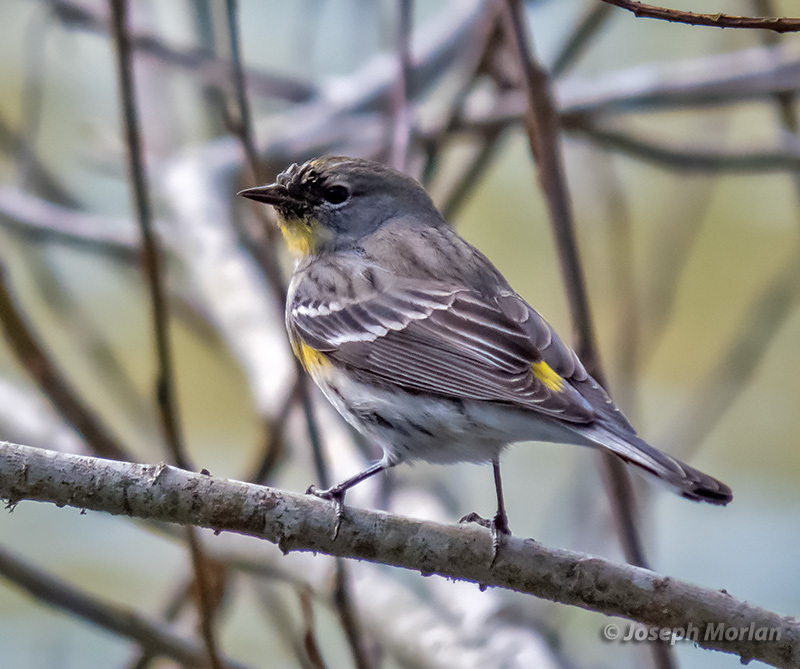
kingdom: Animalia
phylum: Chordata
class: Aves
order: Passeriformes
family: Parulidae
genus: Setophaga
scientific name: Setophaga coronata
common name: Myrtle warbler
